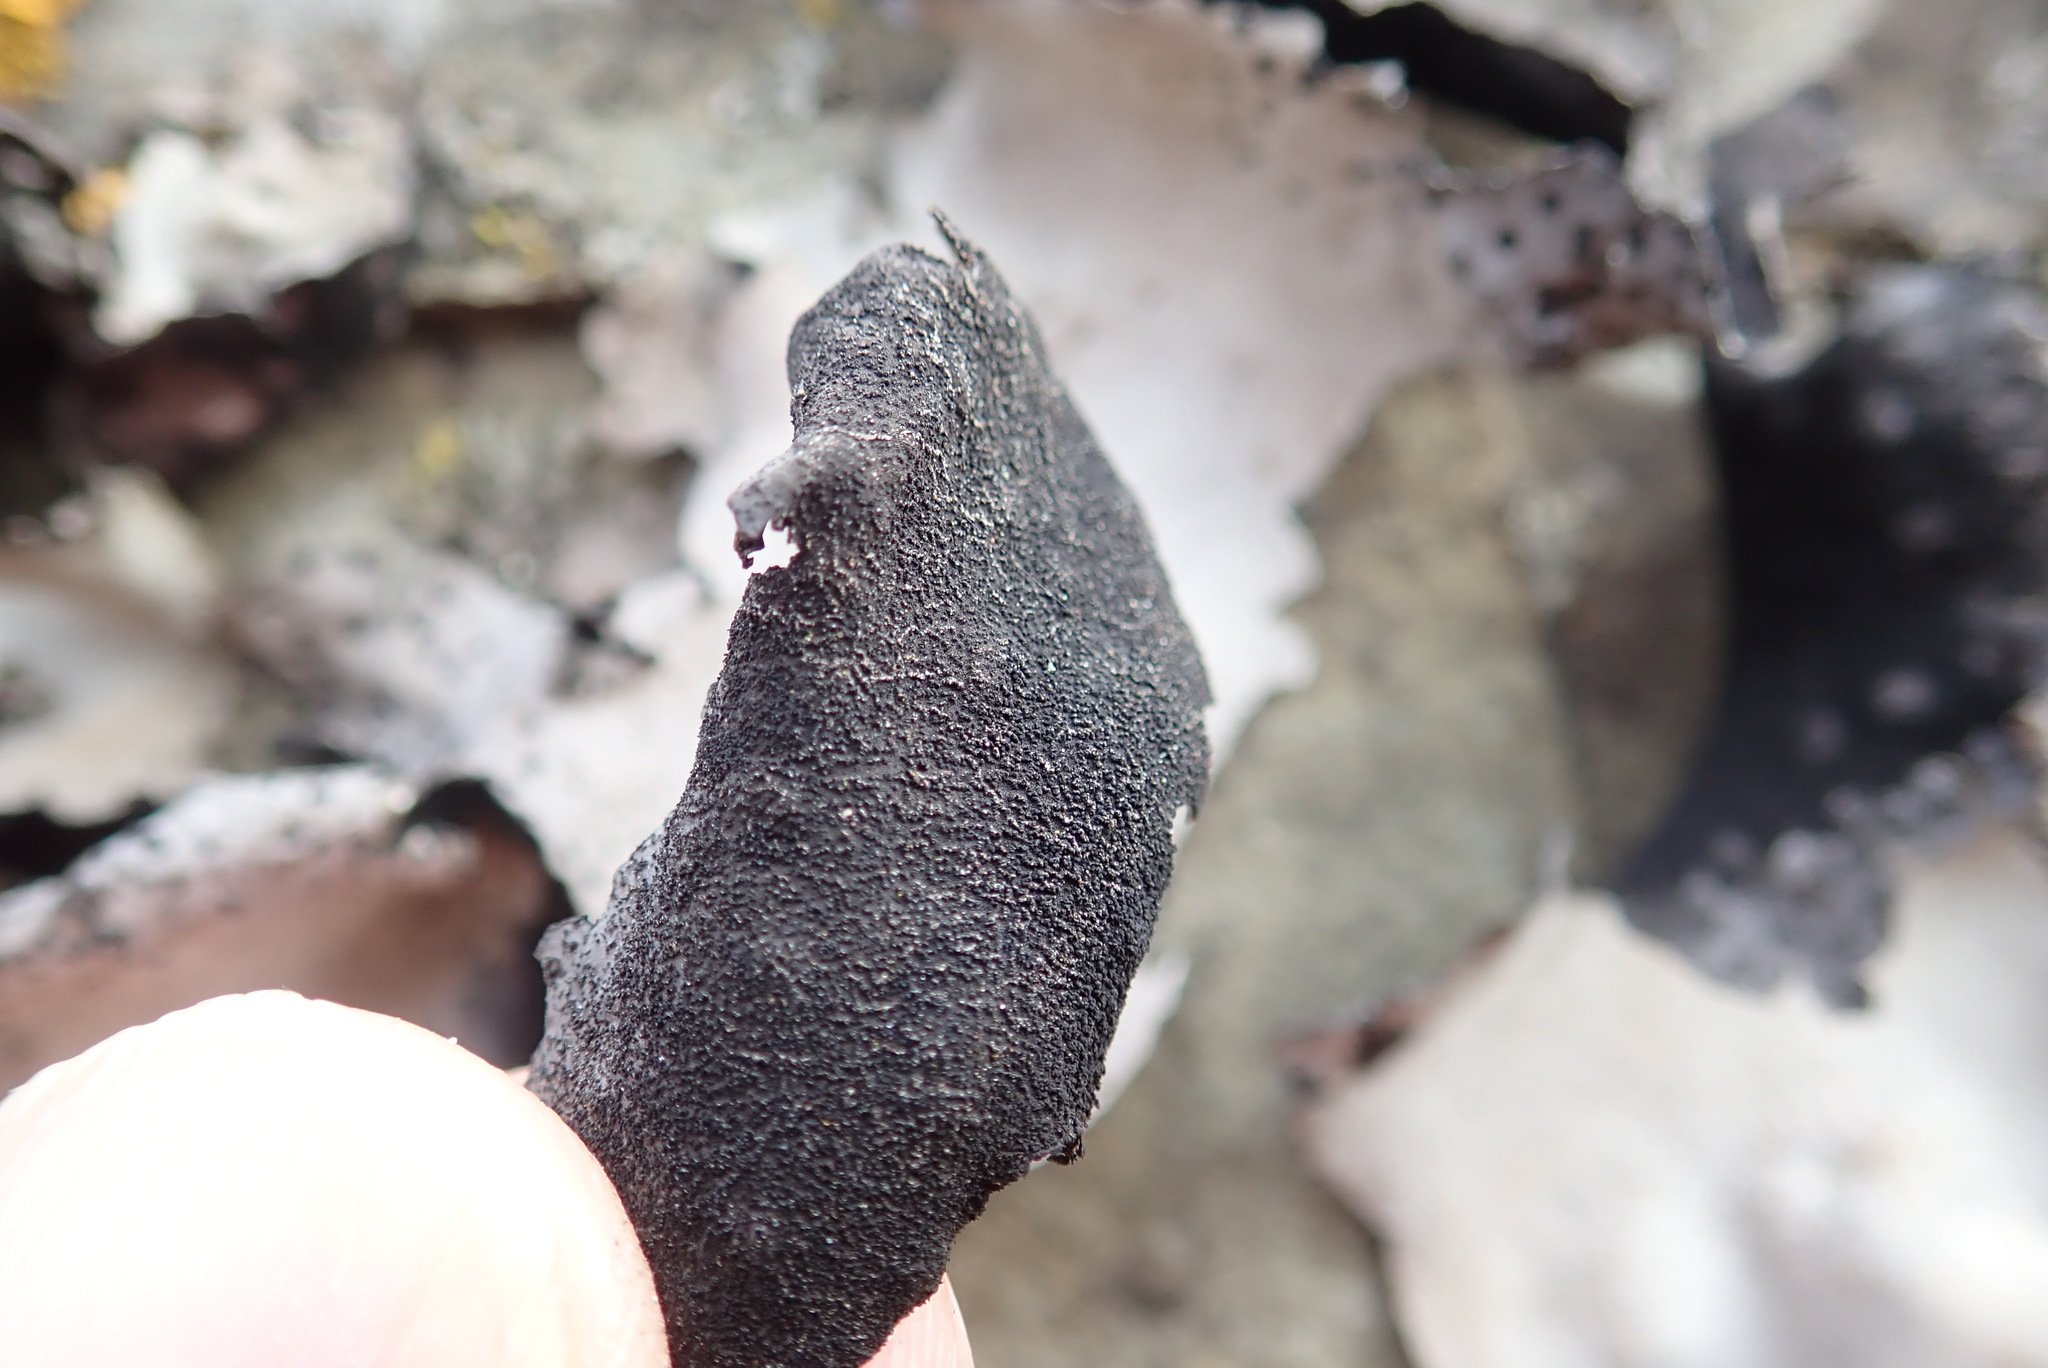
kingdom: Fungi
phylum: Ascomycota
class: Lecanoromycetes
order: Umbilicariales
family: Umbilicariaceae
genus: Umbilicaria
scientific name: Umbilicaria americana
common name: Frosted rock tripe
